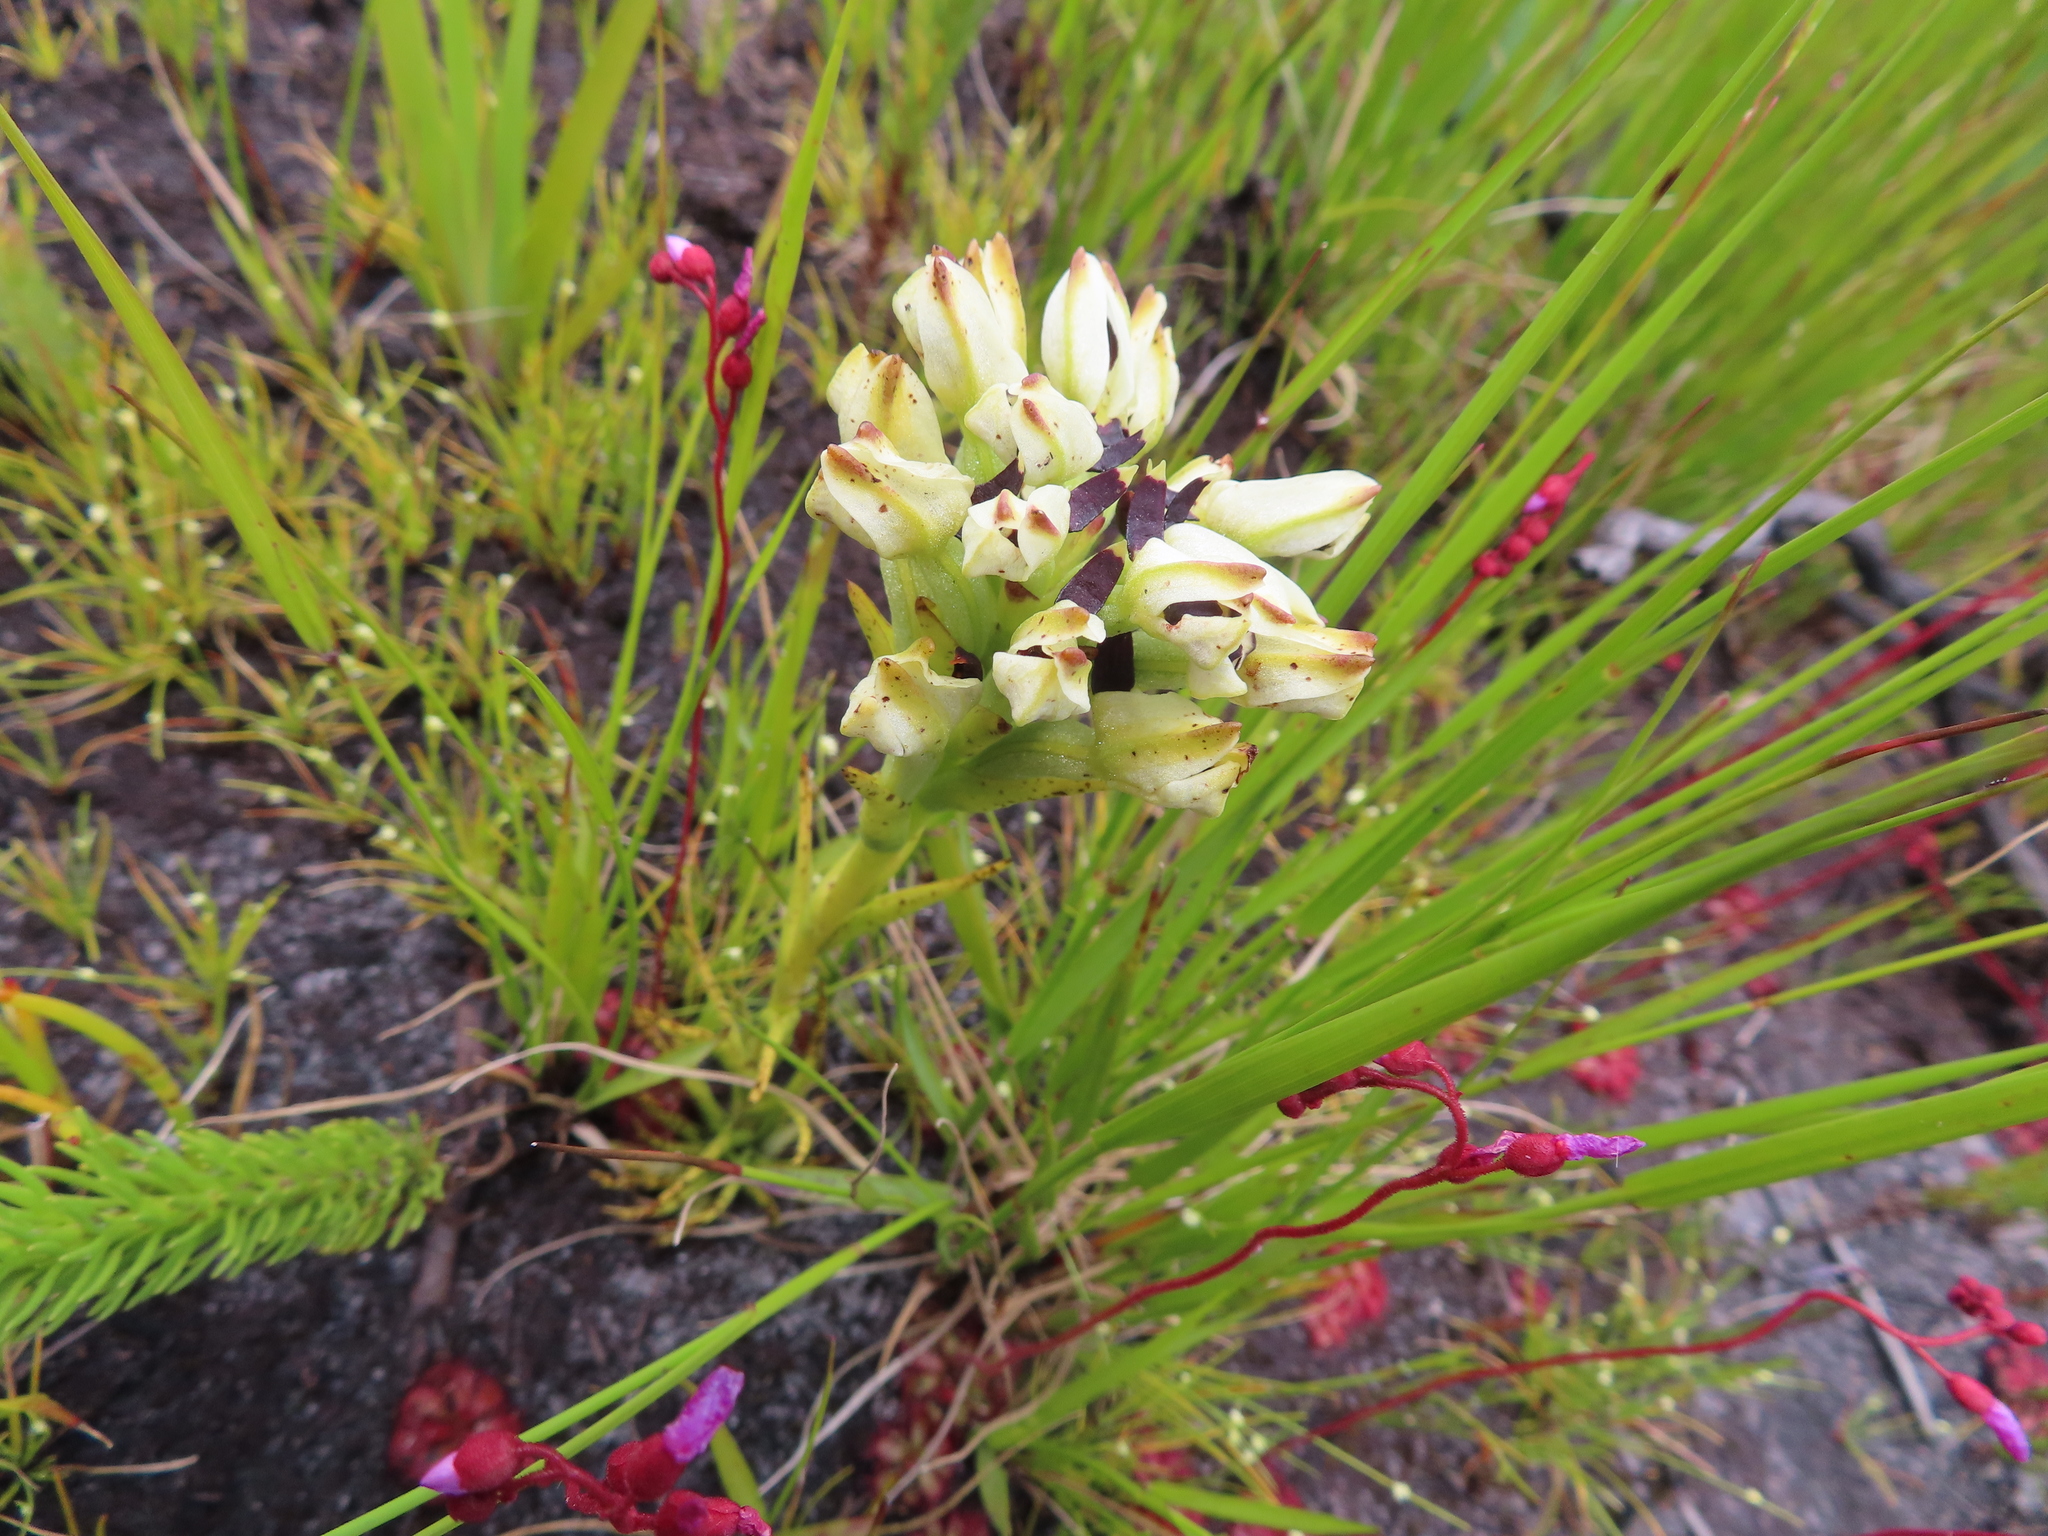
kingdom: Plantae
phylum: Tracheophyta
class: Liliopsida
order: Asparagales
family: Orchidaceae
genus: Disa
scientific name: Disa bivalvata
